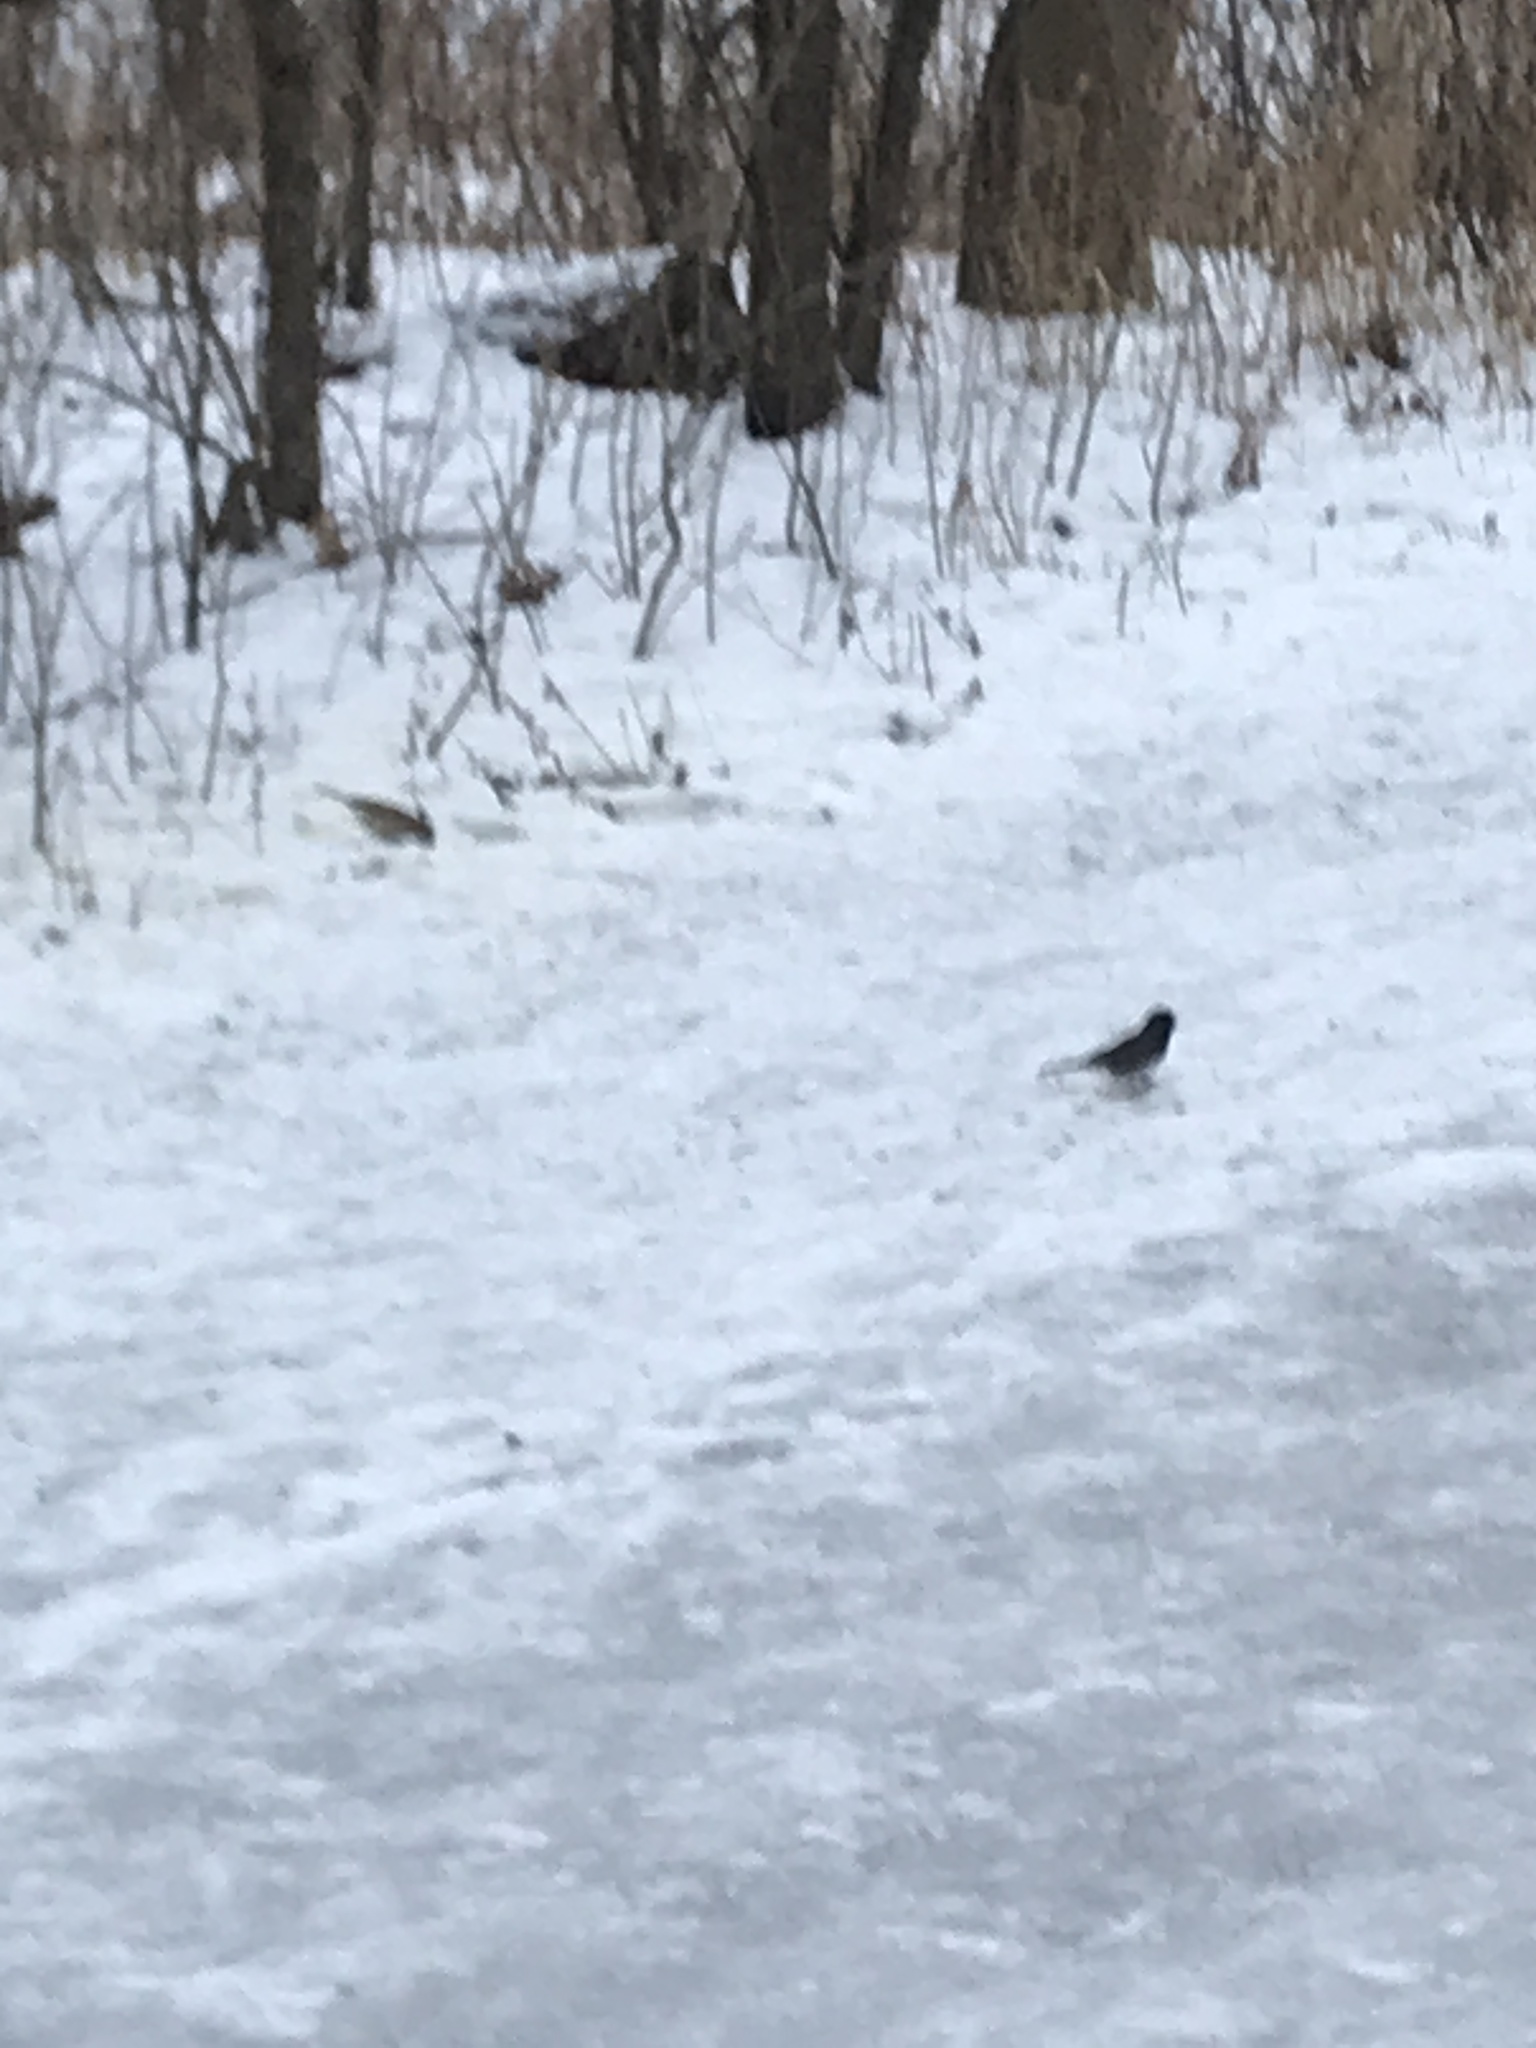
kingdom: Animalia
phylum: Chordata
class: Aves
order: Passeriformes
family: Passerellidae
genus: Junco
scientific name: Junco hyemalis
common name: Dark-eyed junco
